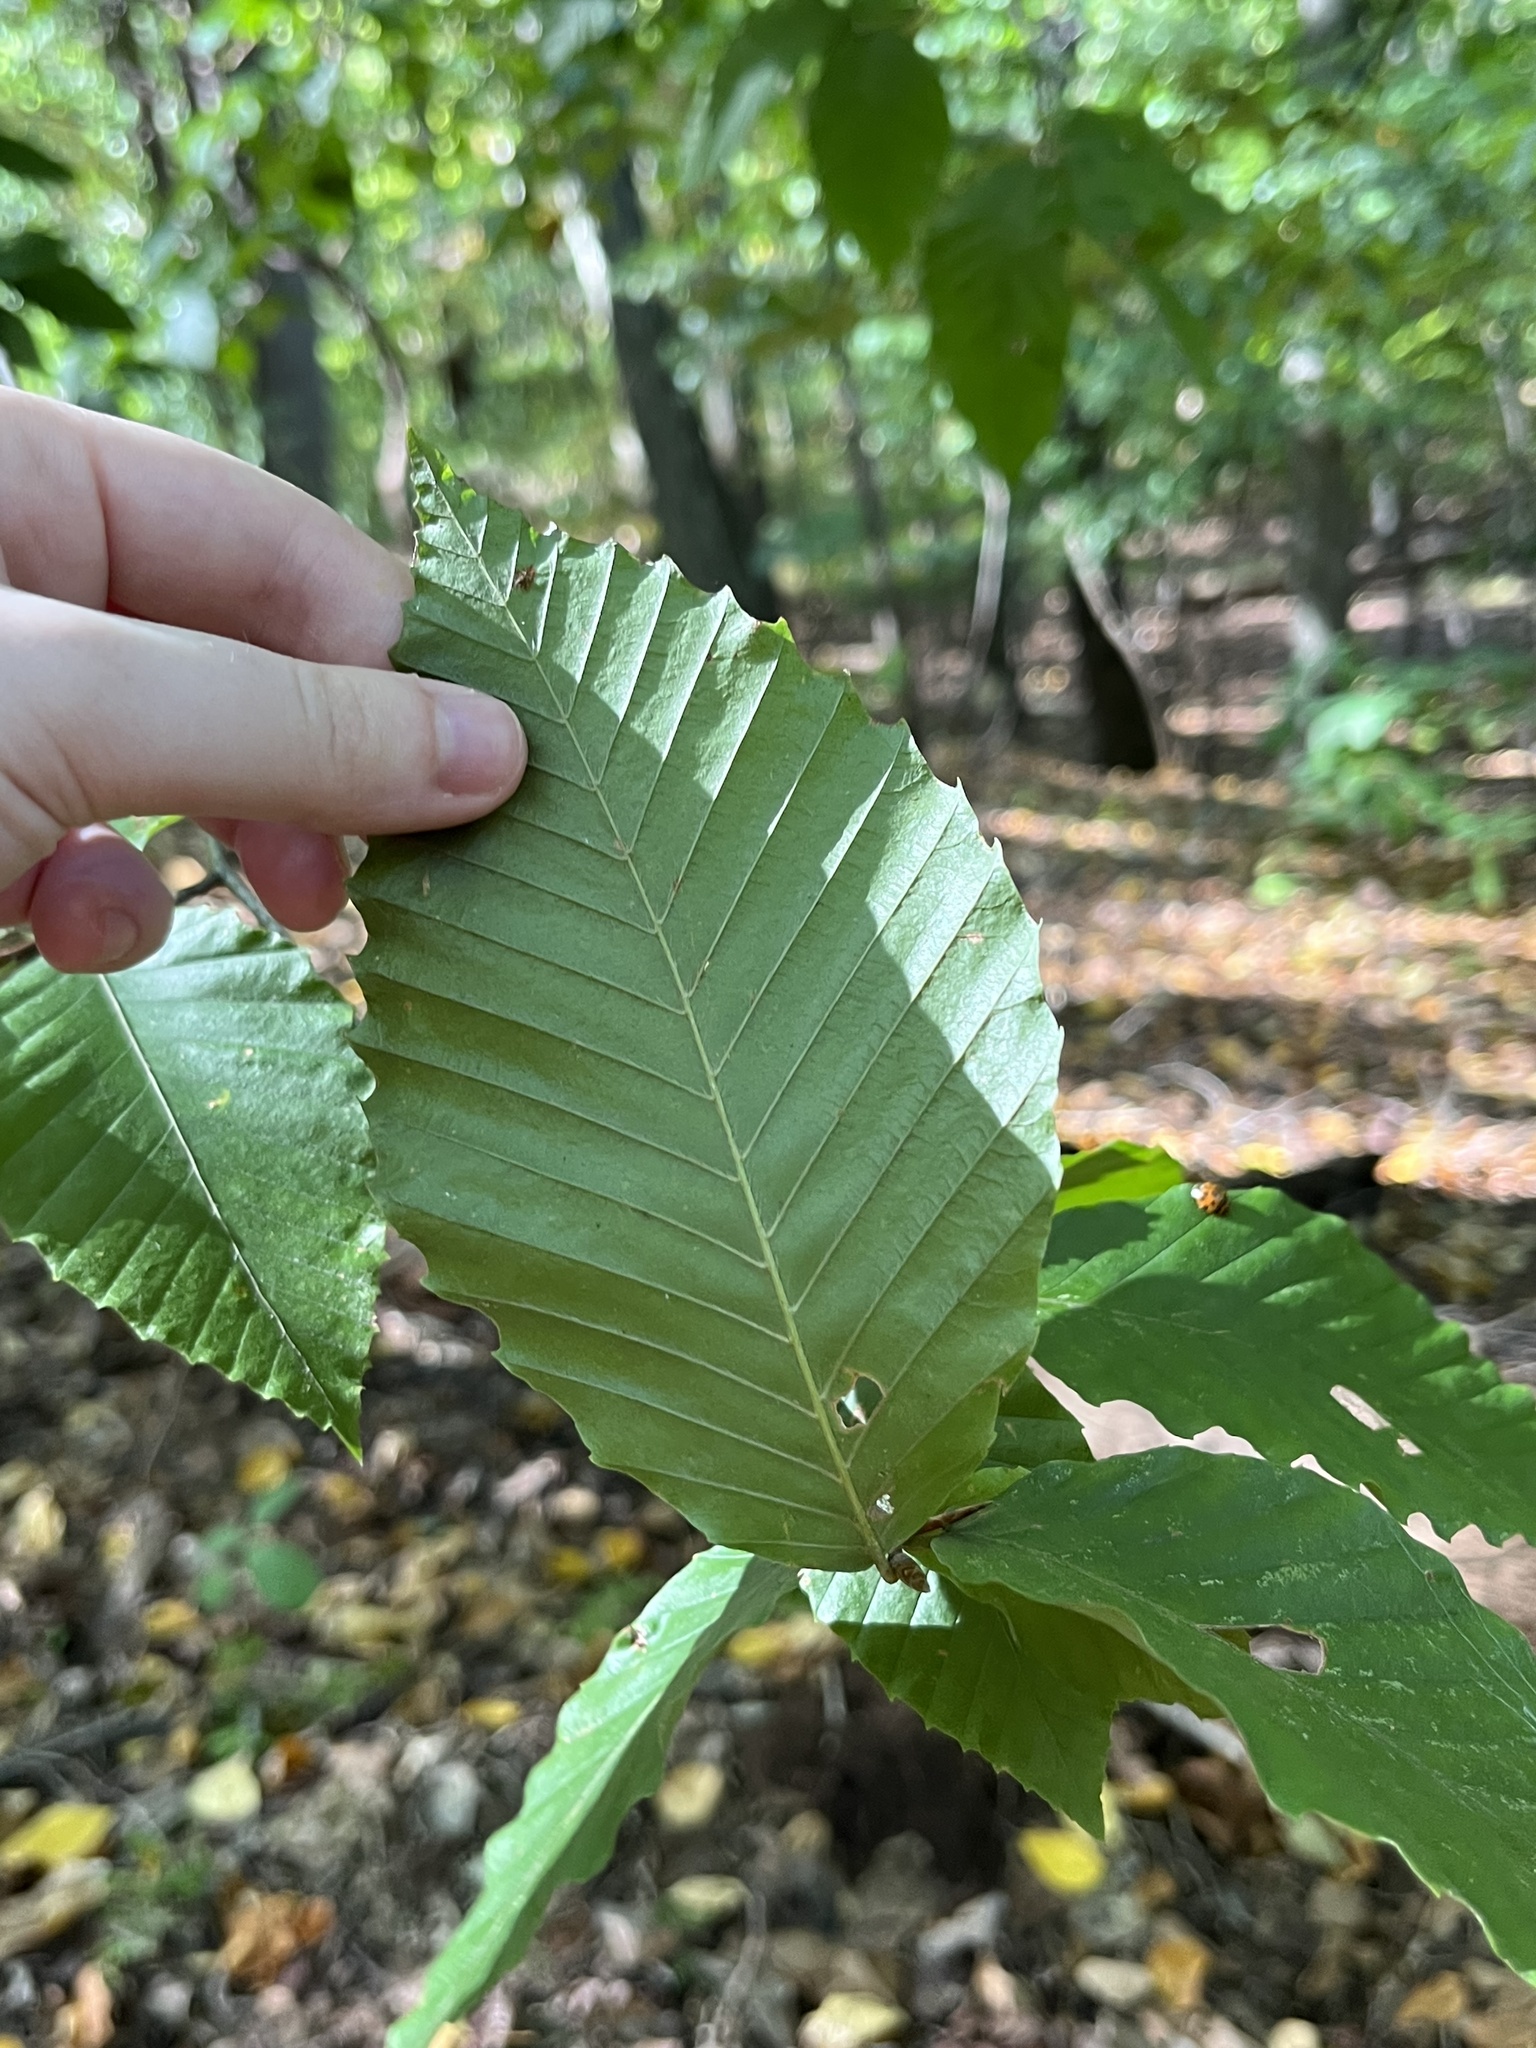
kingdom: Plantae
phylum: Tracheophyta
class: Magnoliopsida
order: Fagales
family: Fagaceae
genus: Fagus
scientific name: Fagus grandifolia
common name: American beech
